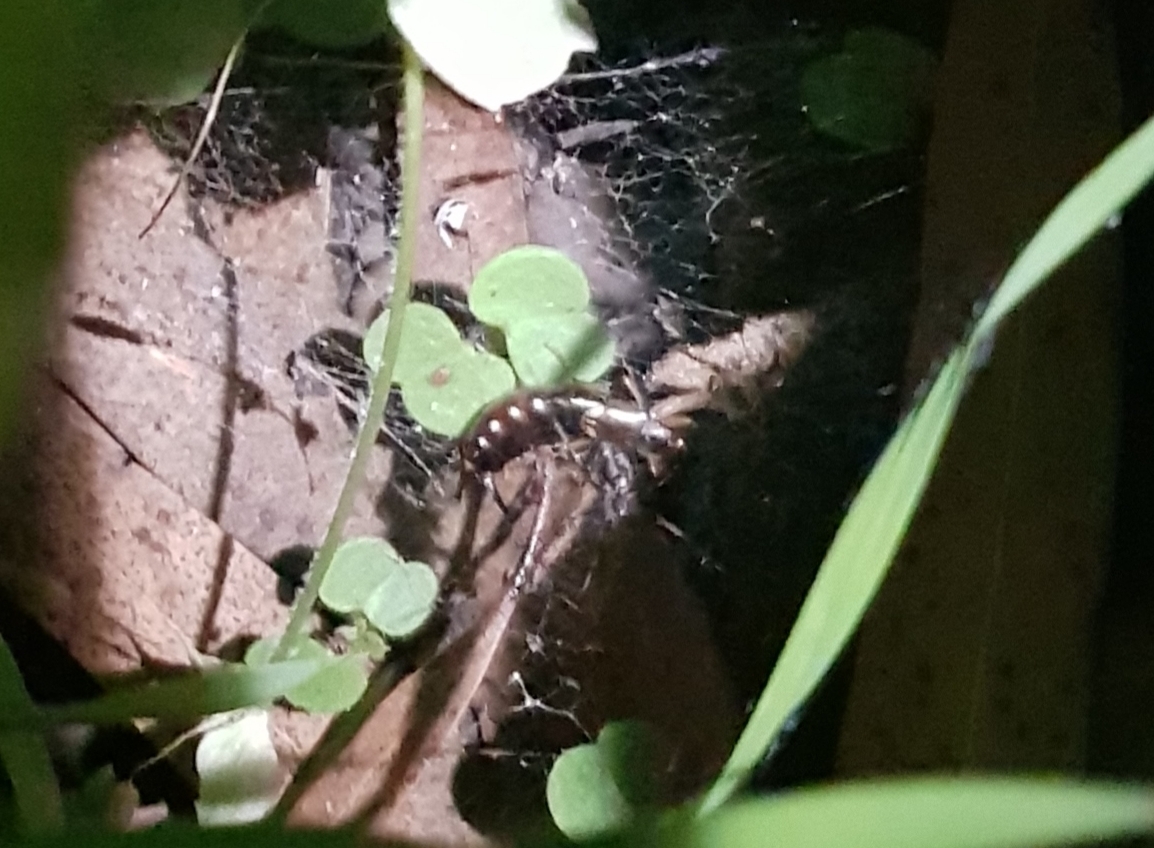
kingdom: Animalia
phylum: Arthropoda
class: Insecta
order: Dermaptera
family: Forficulidae
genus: Forficula
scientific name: Forficula
